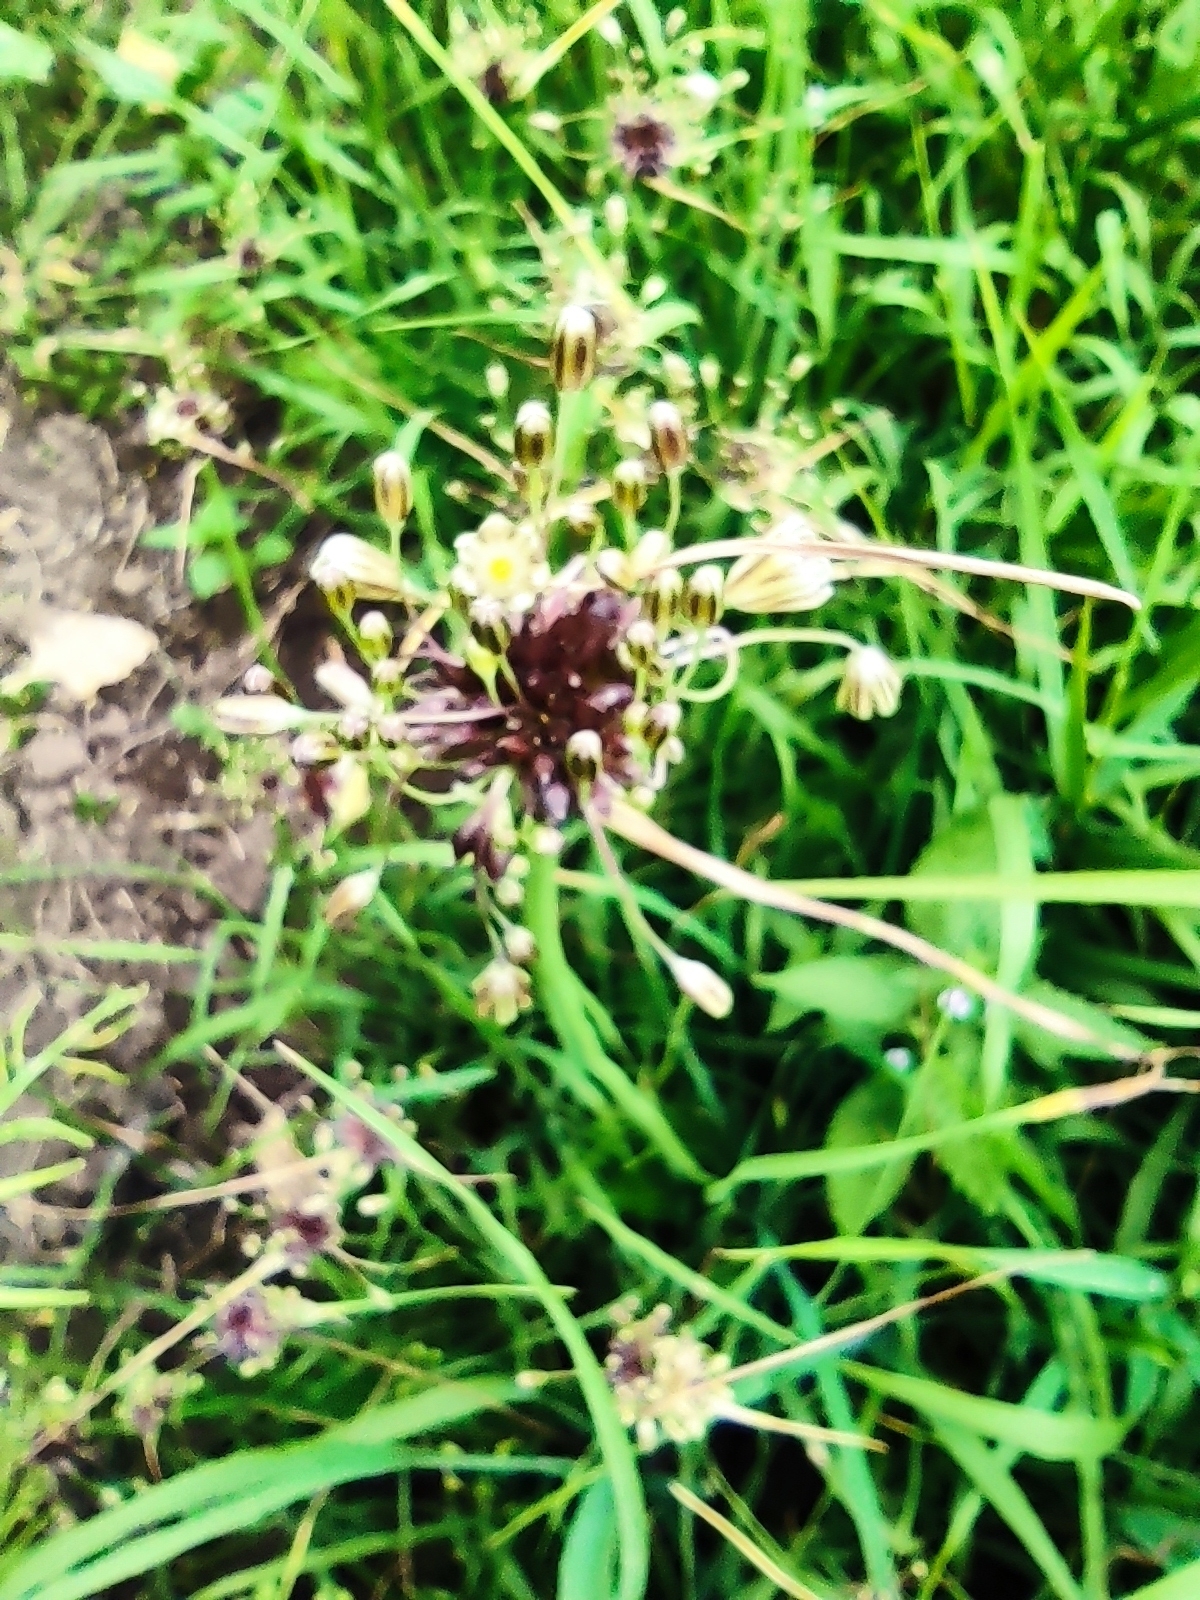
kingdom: Plantae
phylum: Tracheophyta
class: Liliopsida
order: Asparagales
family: Amaryllidaceae
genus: Allium
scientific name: Allium oleraceum
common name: Field garlic
